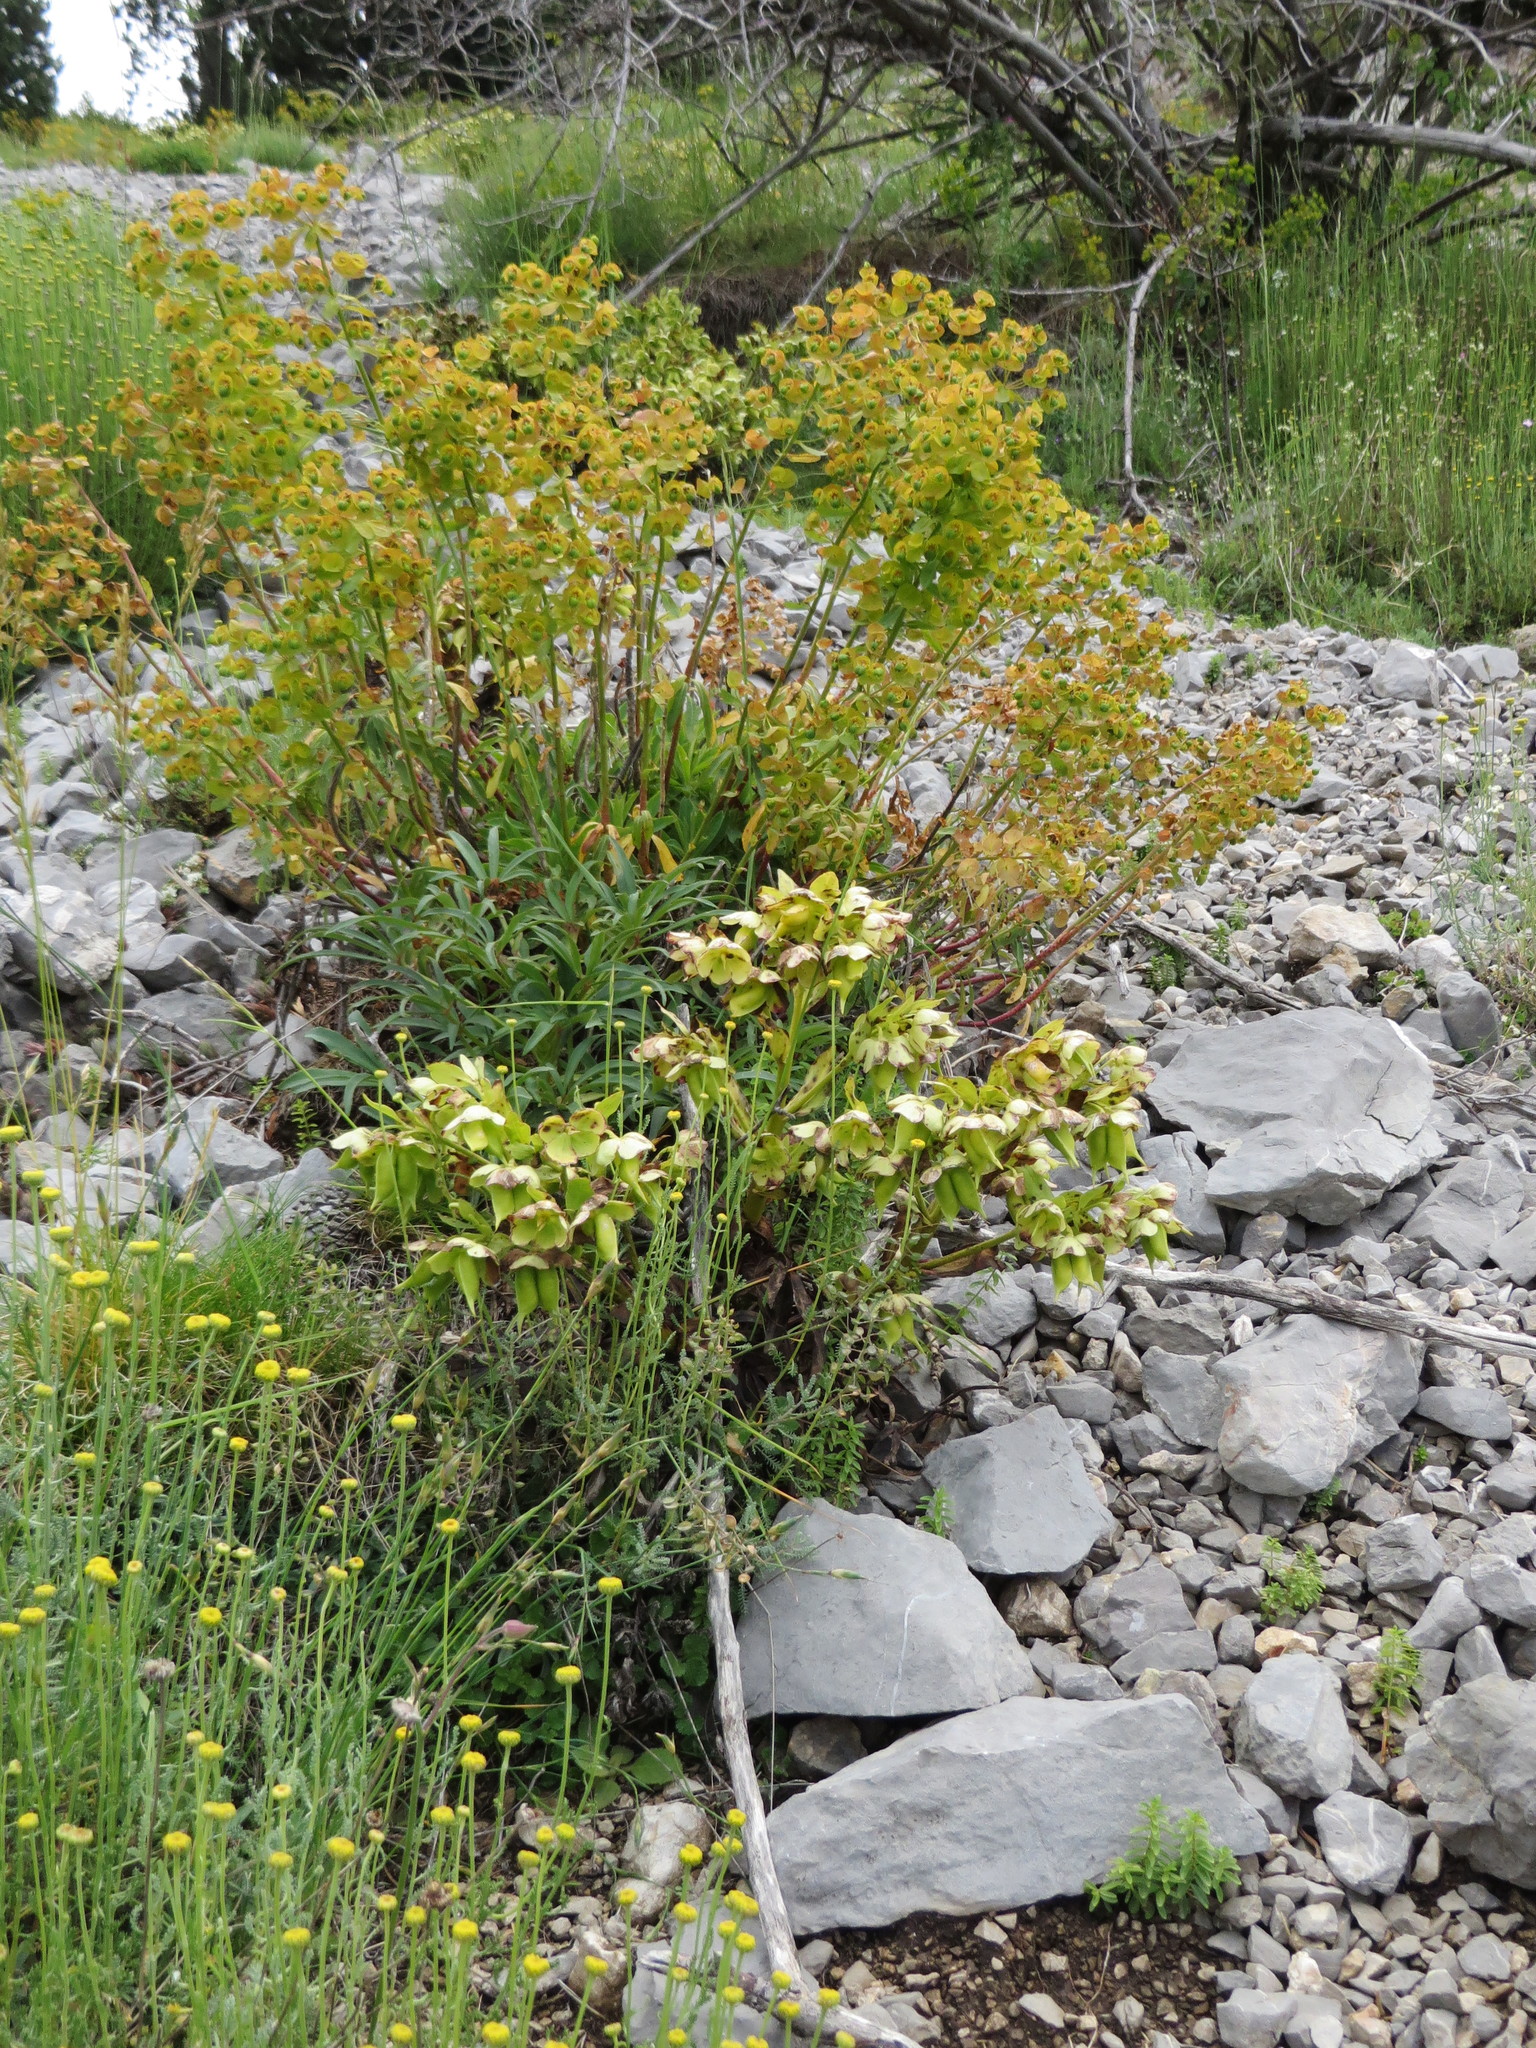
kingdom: Plantae
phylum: Tracheophyta
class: Magnoliopsida
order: Ranunculales
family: Ranunculaceae
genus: Helleborus
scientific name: Helleborus foetidus
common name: Stinking hellebore
